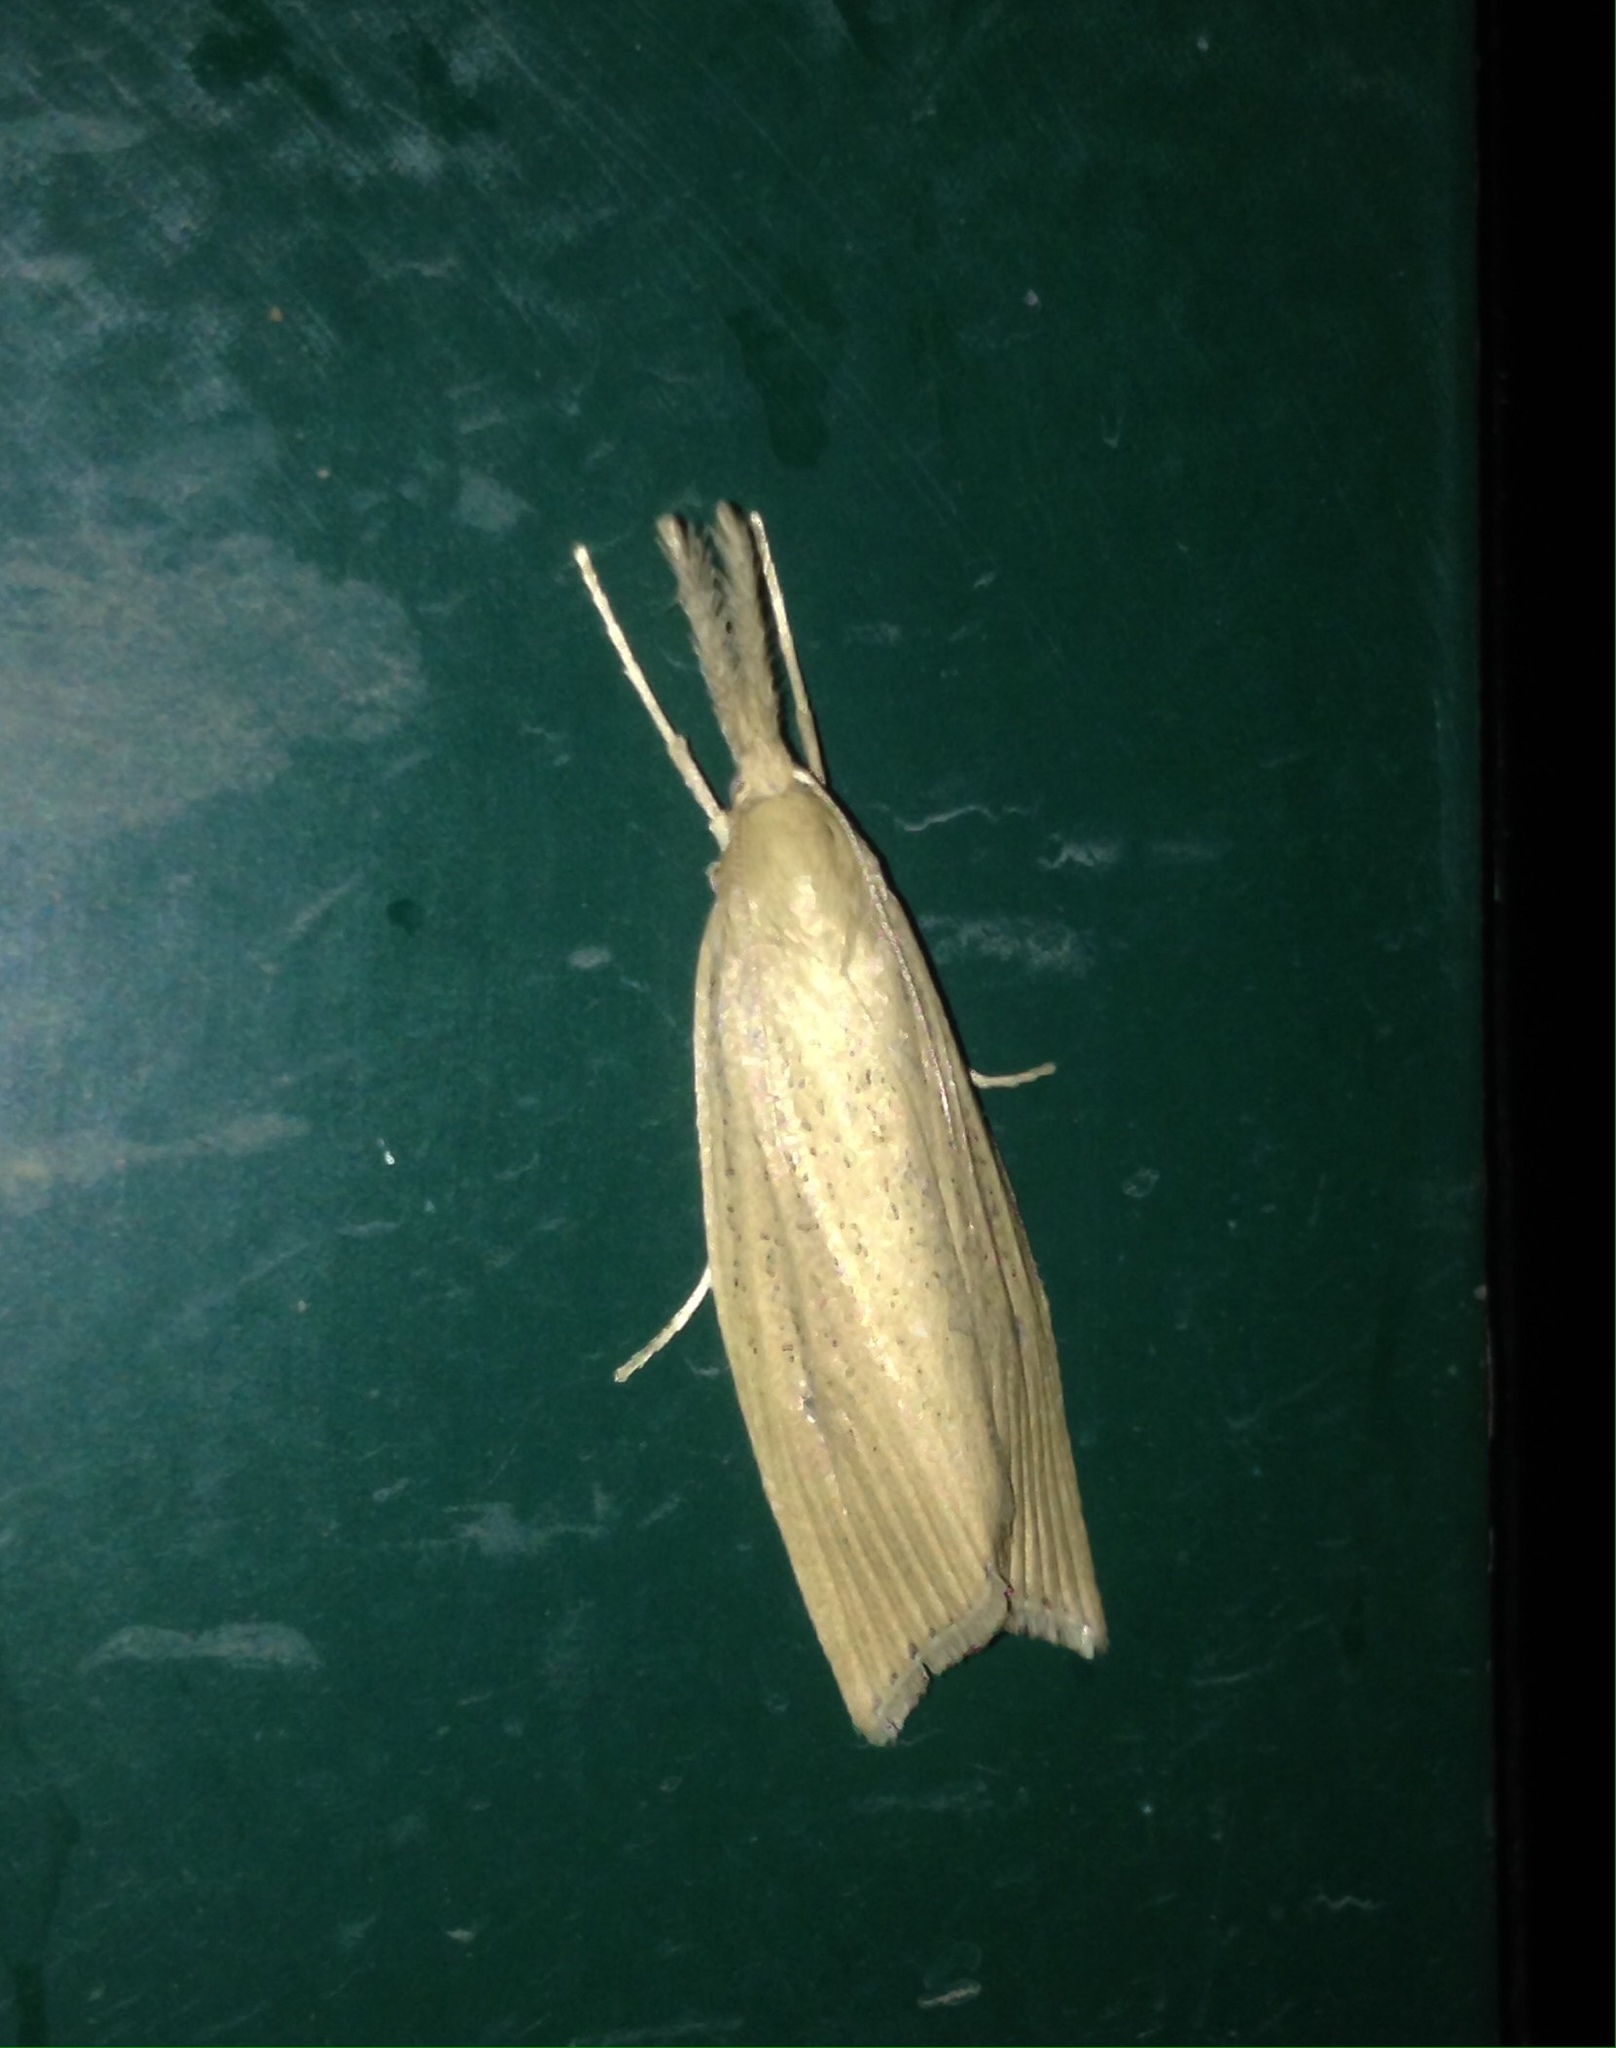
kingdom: Animalia
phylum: Arthropoda
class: Insecta
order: Lepidoptera
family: Crambidae
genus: Chilo
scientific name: Chilo phragmitella
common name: Reed veneer
